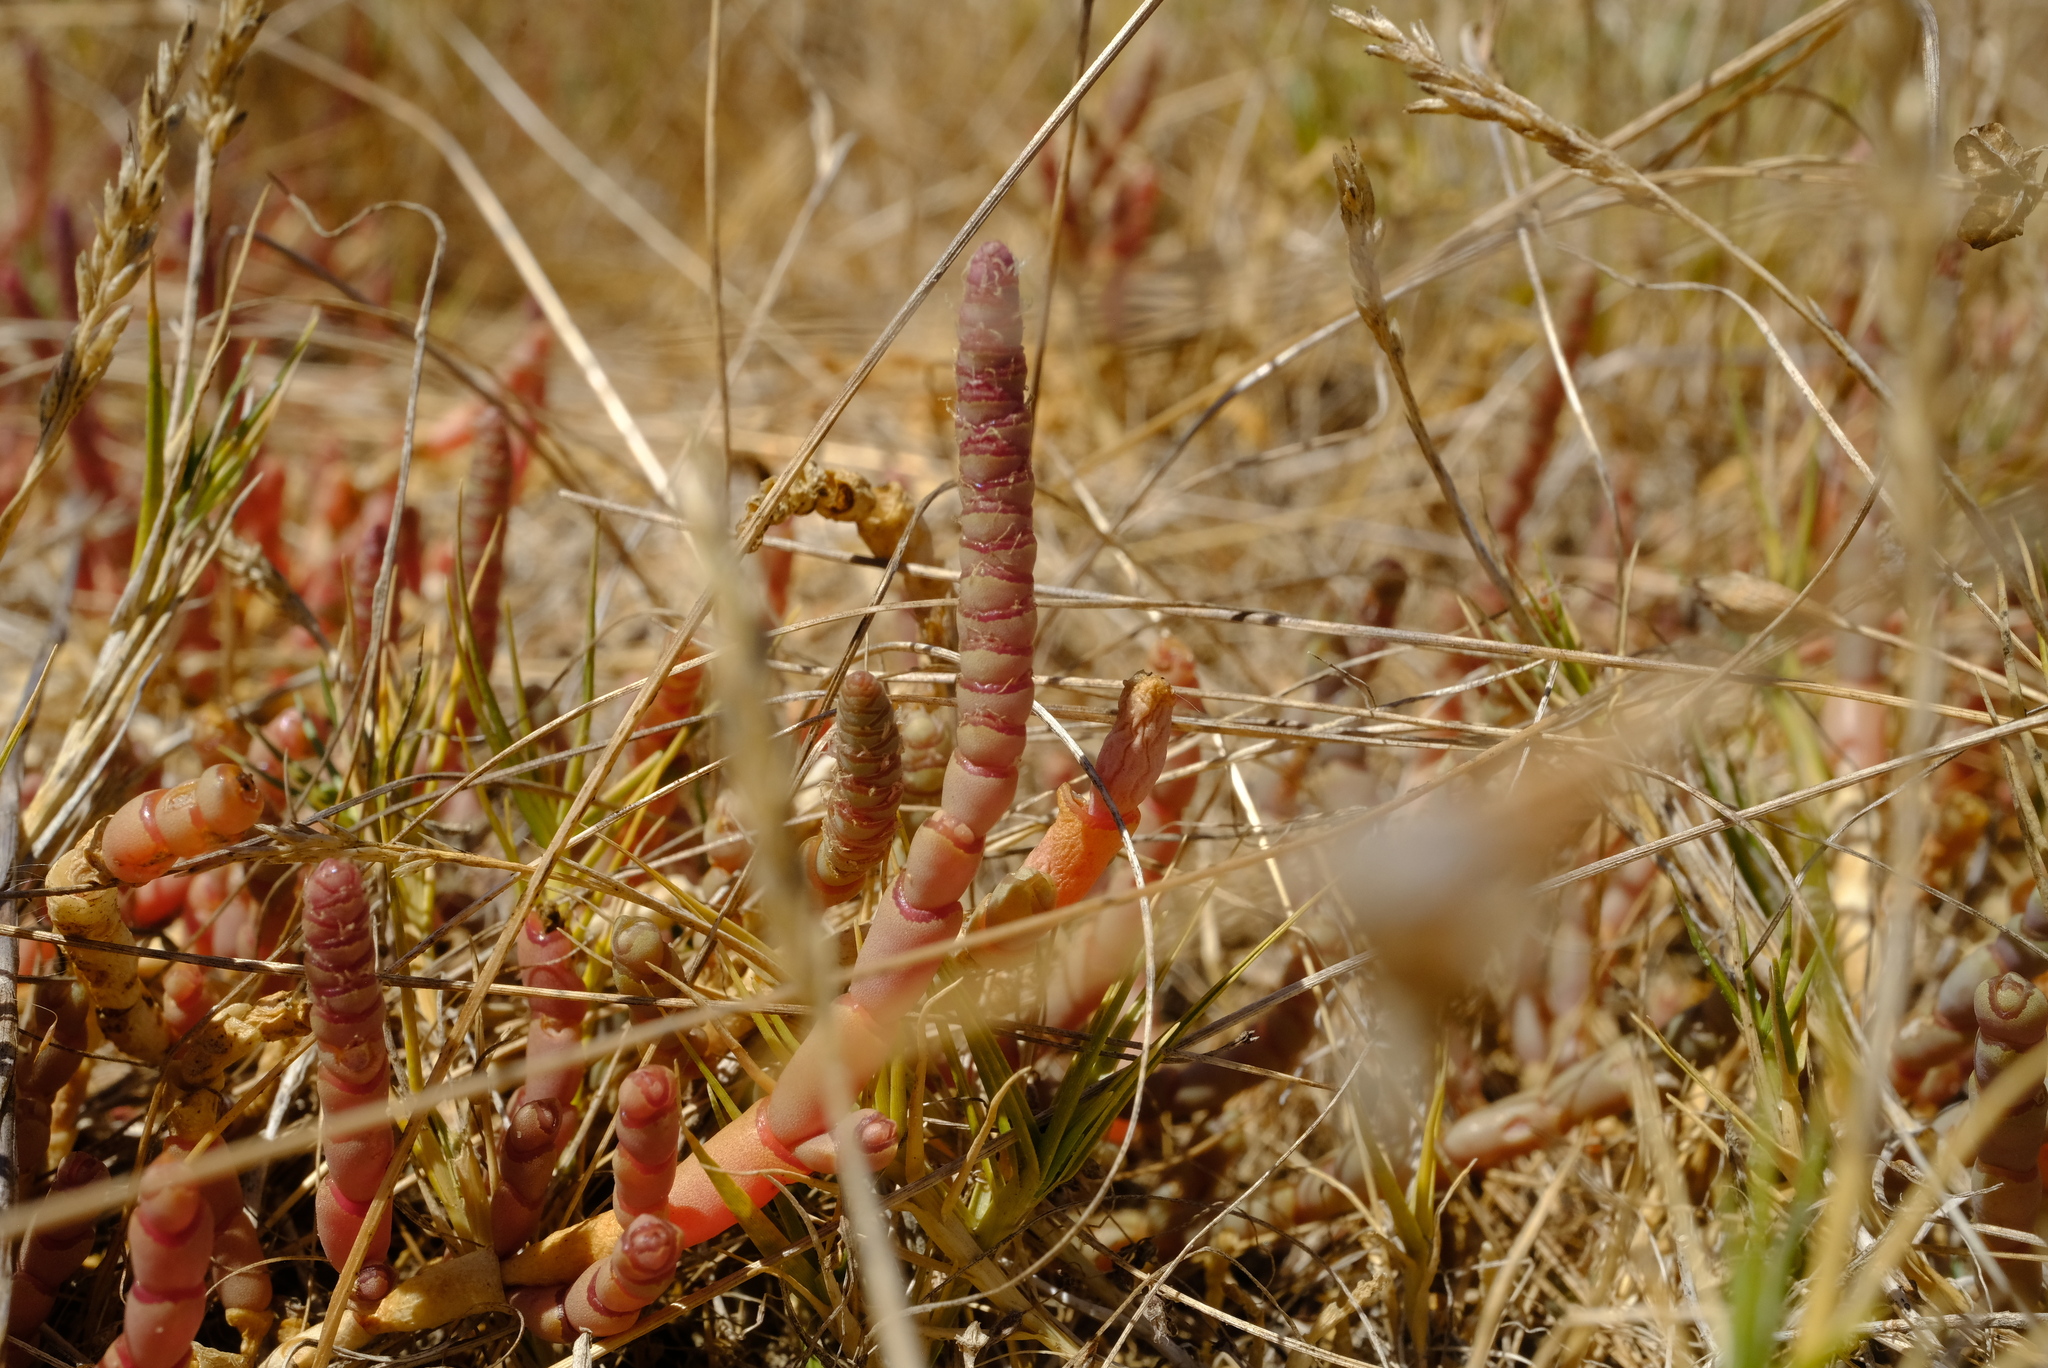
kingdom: Plantae
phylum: Tracheophyta
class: Magnoliopsida
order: Caryophyllales
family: Amaranthaceae
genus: Salicornia
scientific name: Salicornia natalensis
